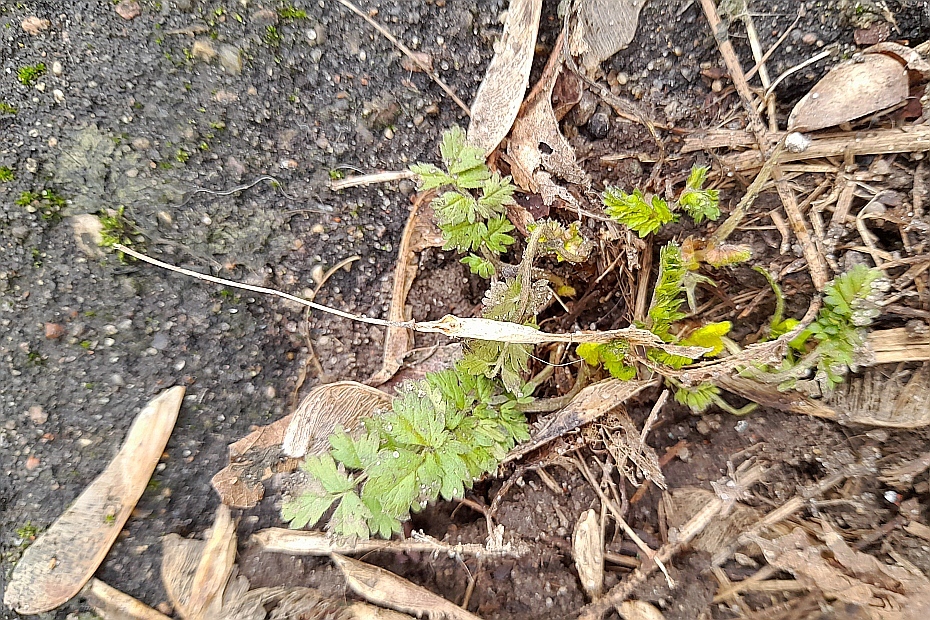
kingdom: Plantae
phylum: Tracheophyta
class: Magnoliopsida
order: Rosales
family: Rosaceae
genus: Potentilla
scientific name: Potentilla supina
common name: Prostrate cinquefoil
